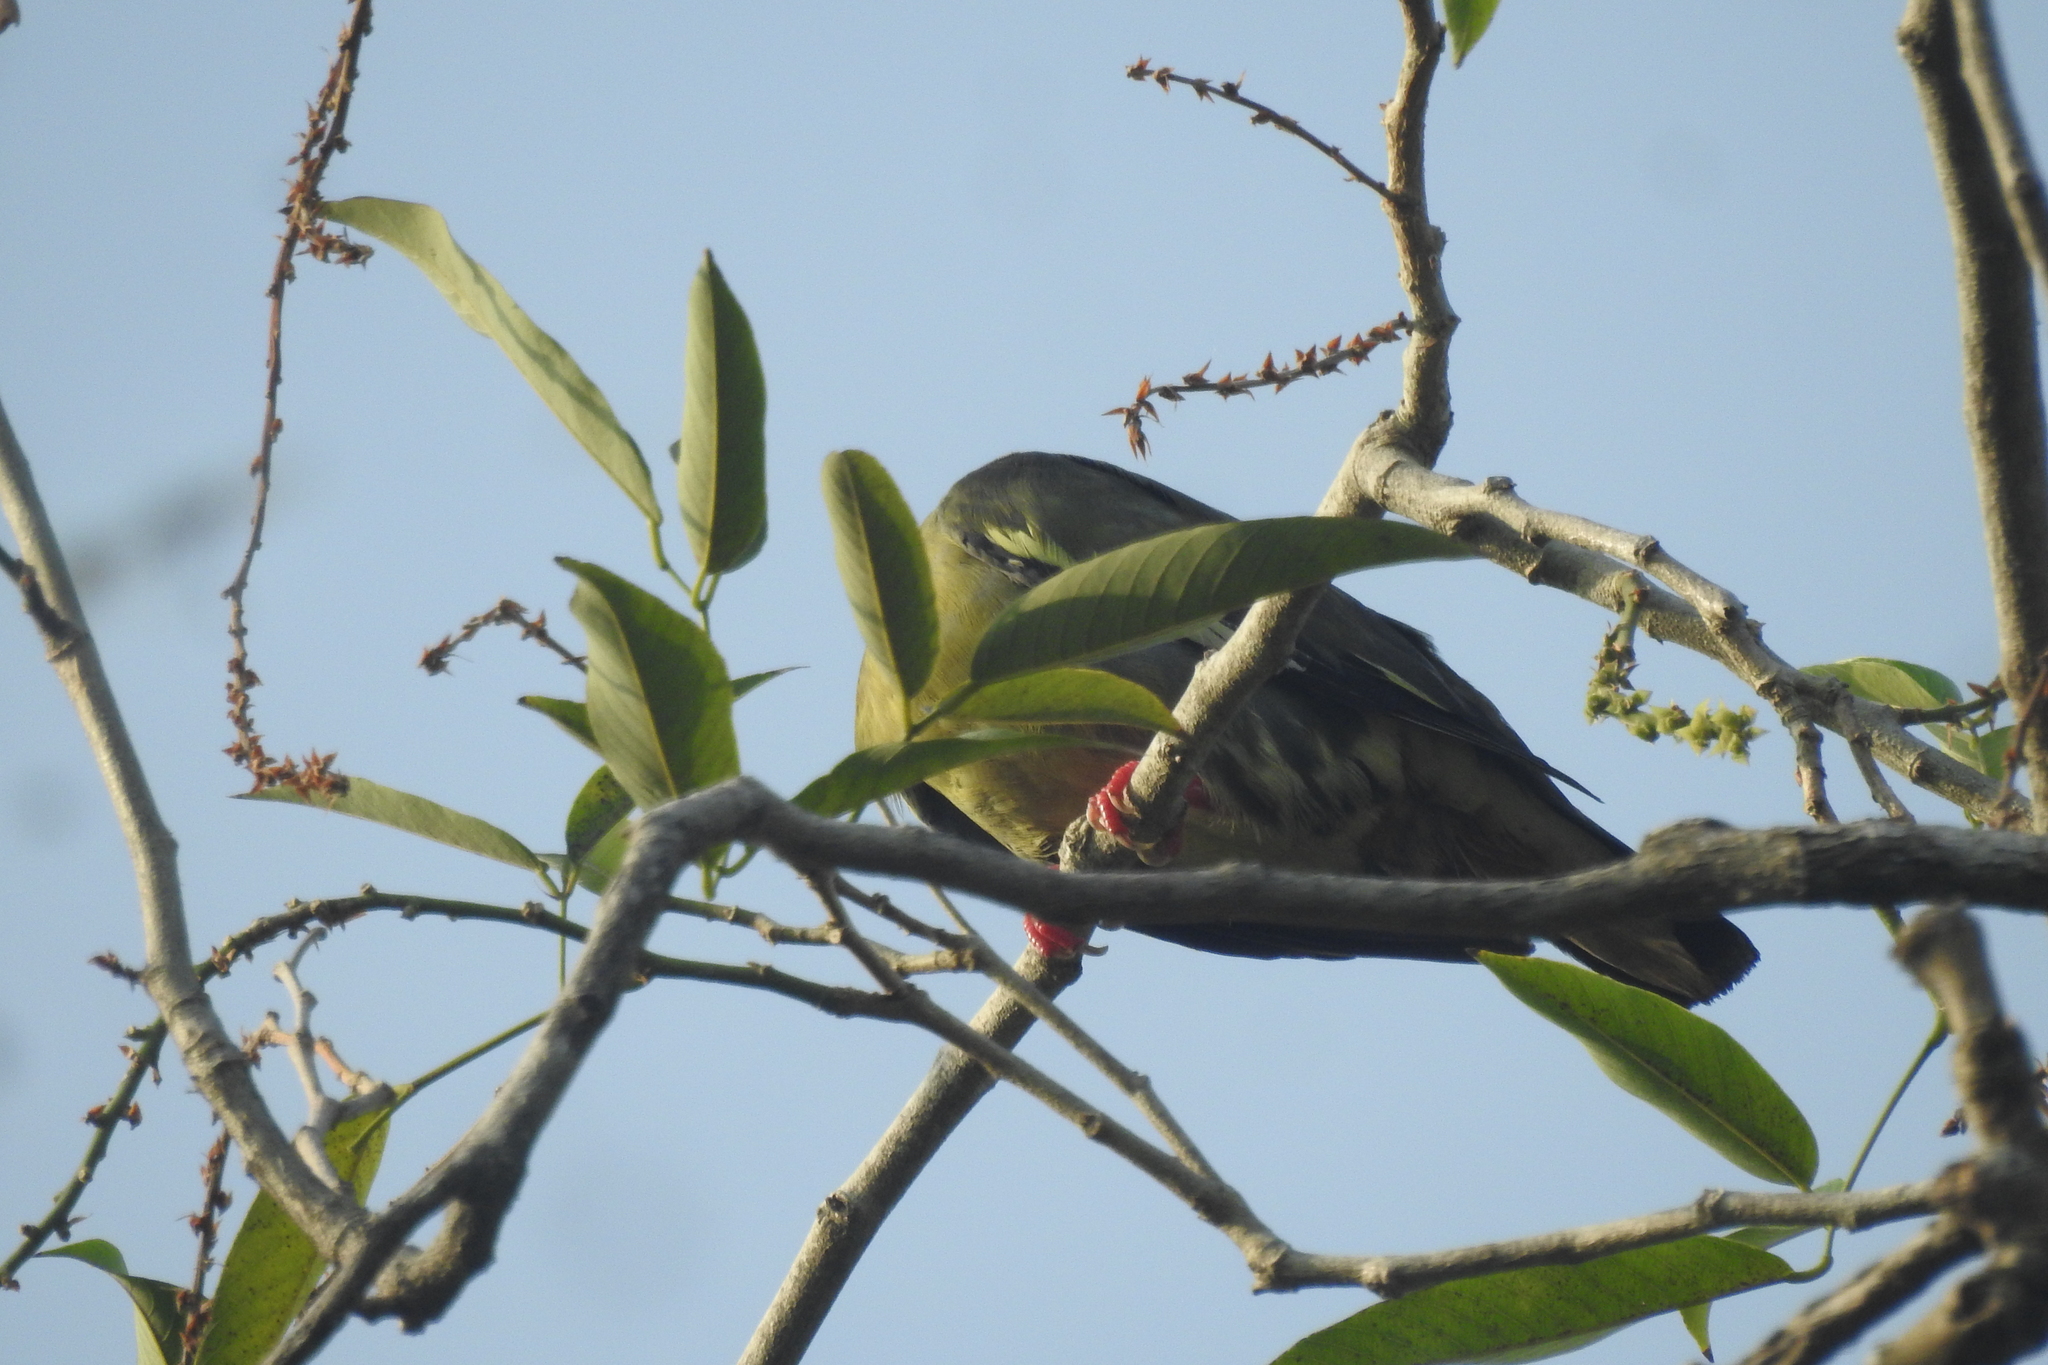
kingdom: Animalia
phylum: Chordata
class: Aves
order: Columbiformes
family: Columbidae
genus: Treron
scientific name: Treron vernans
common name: Pink-necked green pigeon
